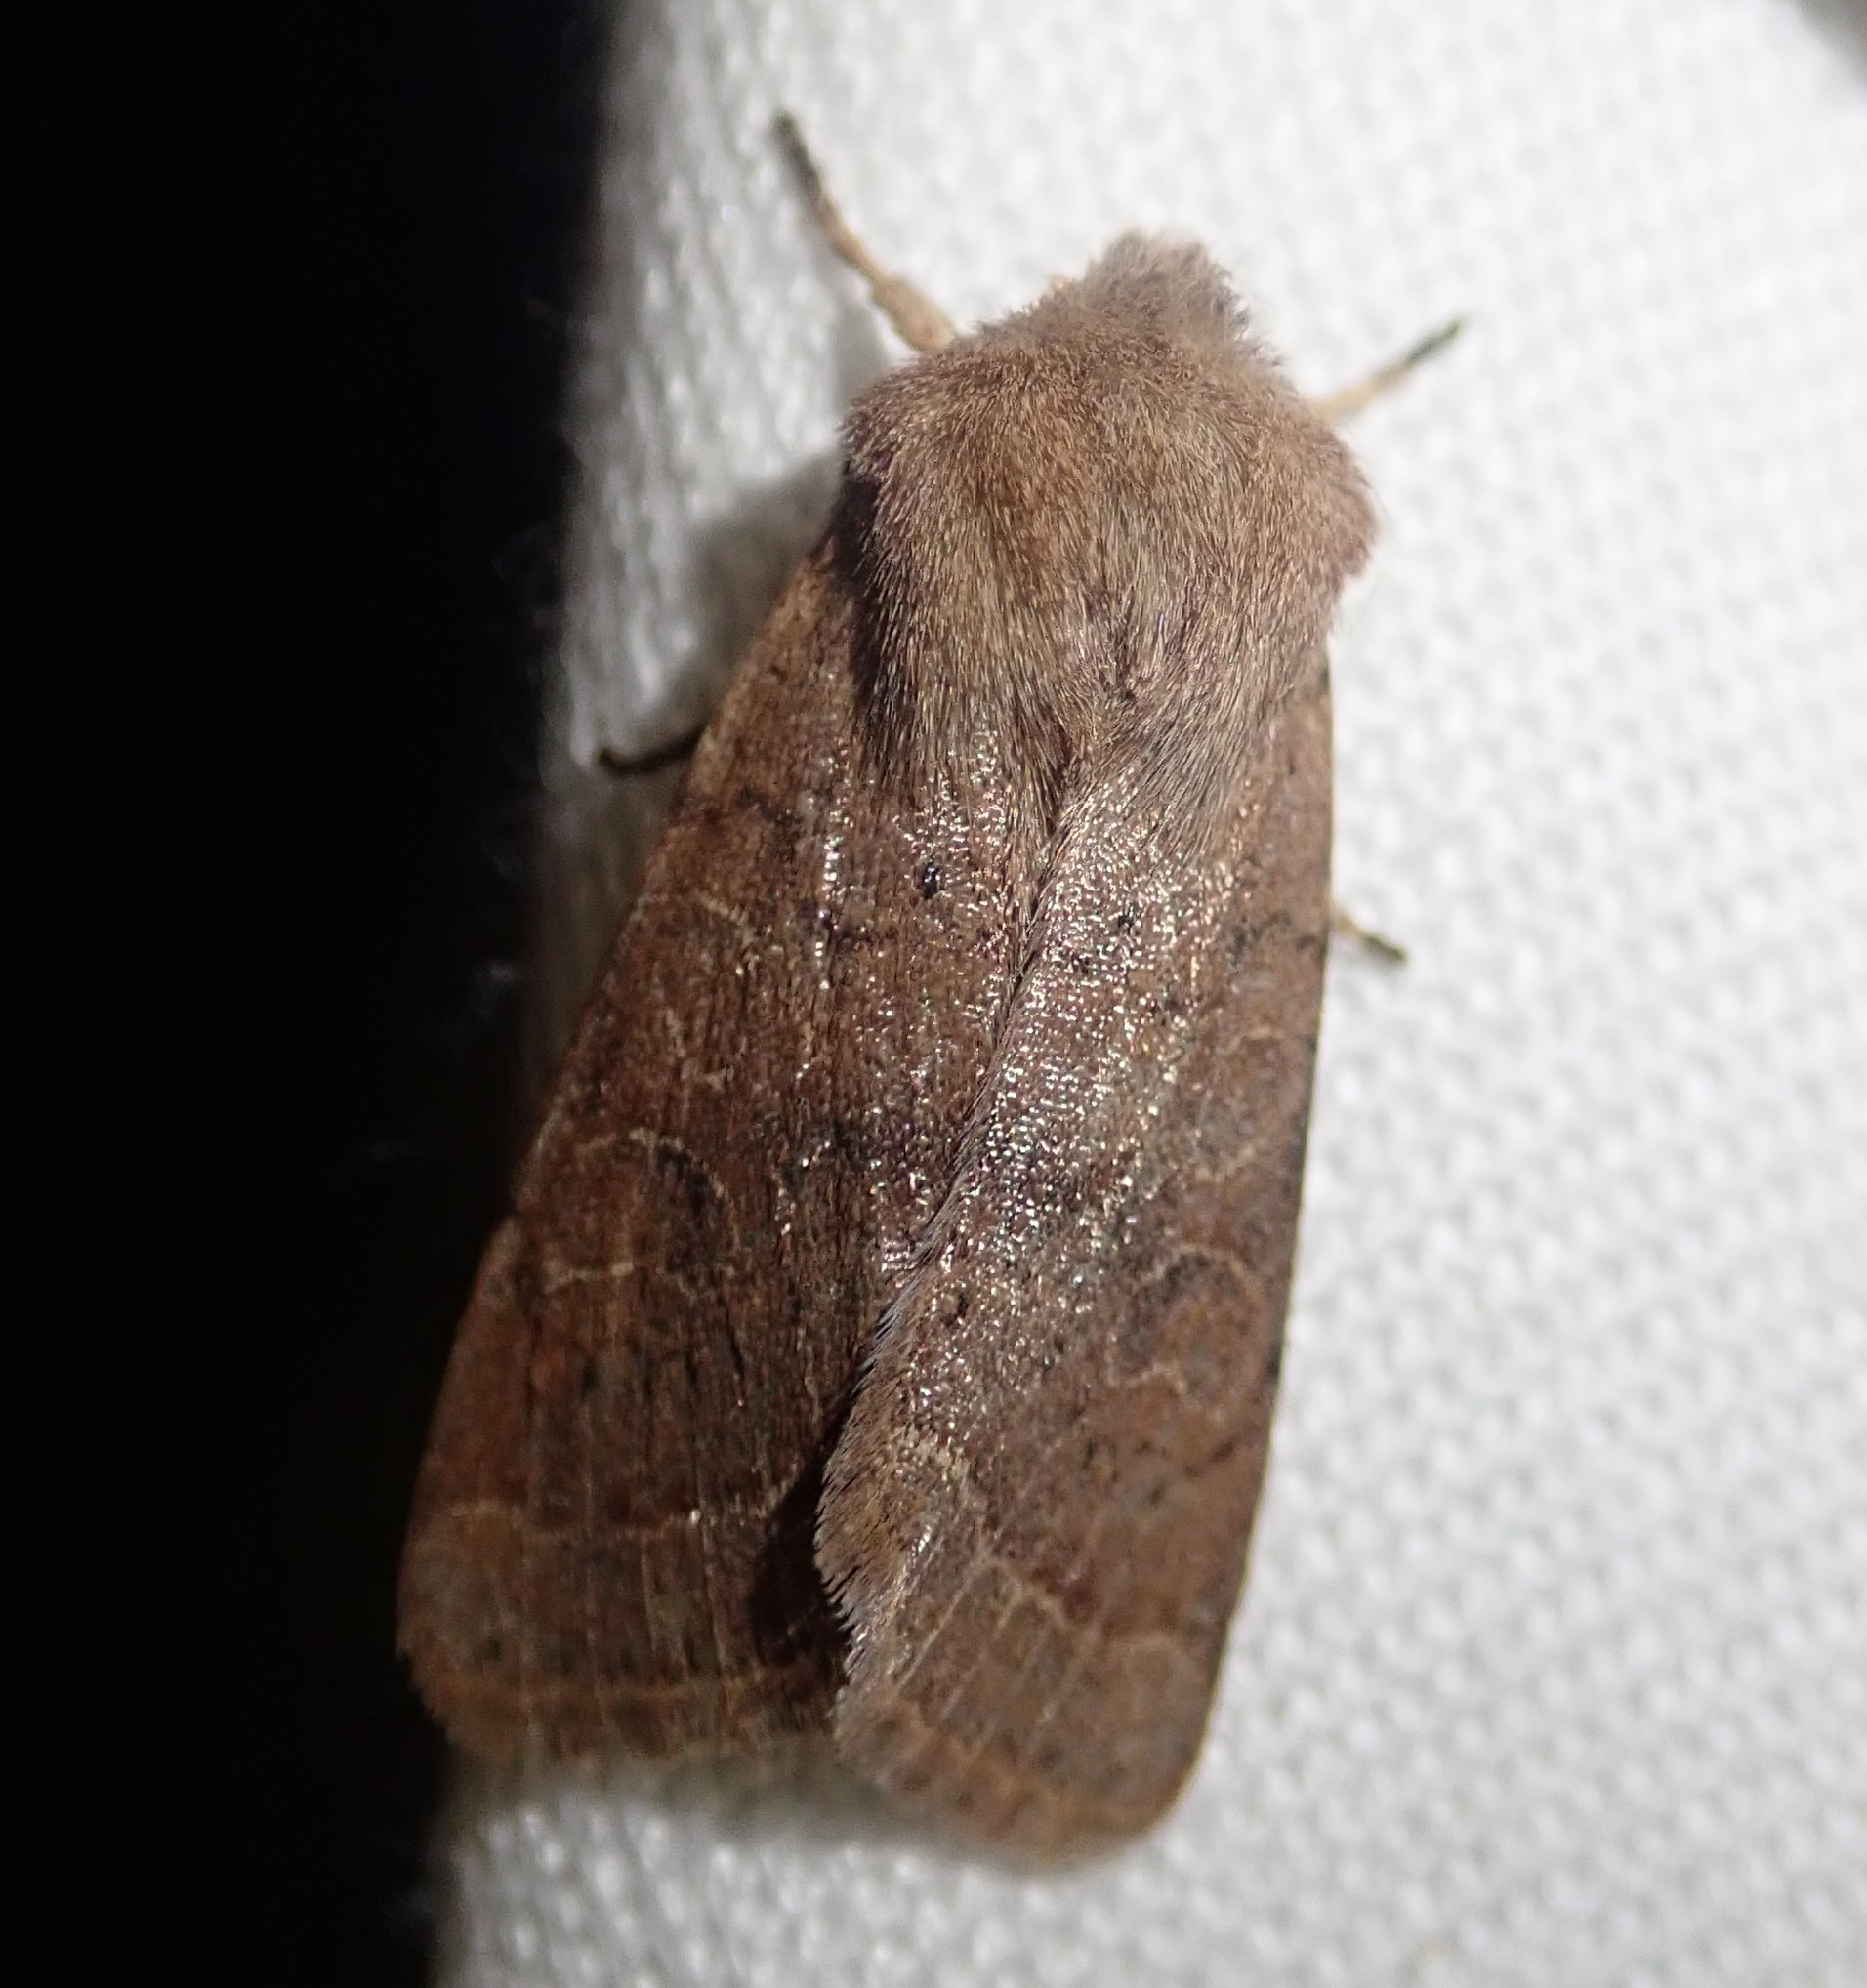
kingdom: Animalia
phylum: Arthropoda
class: Insecta
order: Lepidoptera
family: Noctuidae
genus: Orthosia
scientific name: Orthosia cerasi
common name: Common quaker
